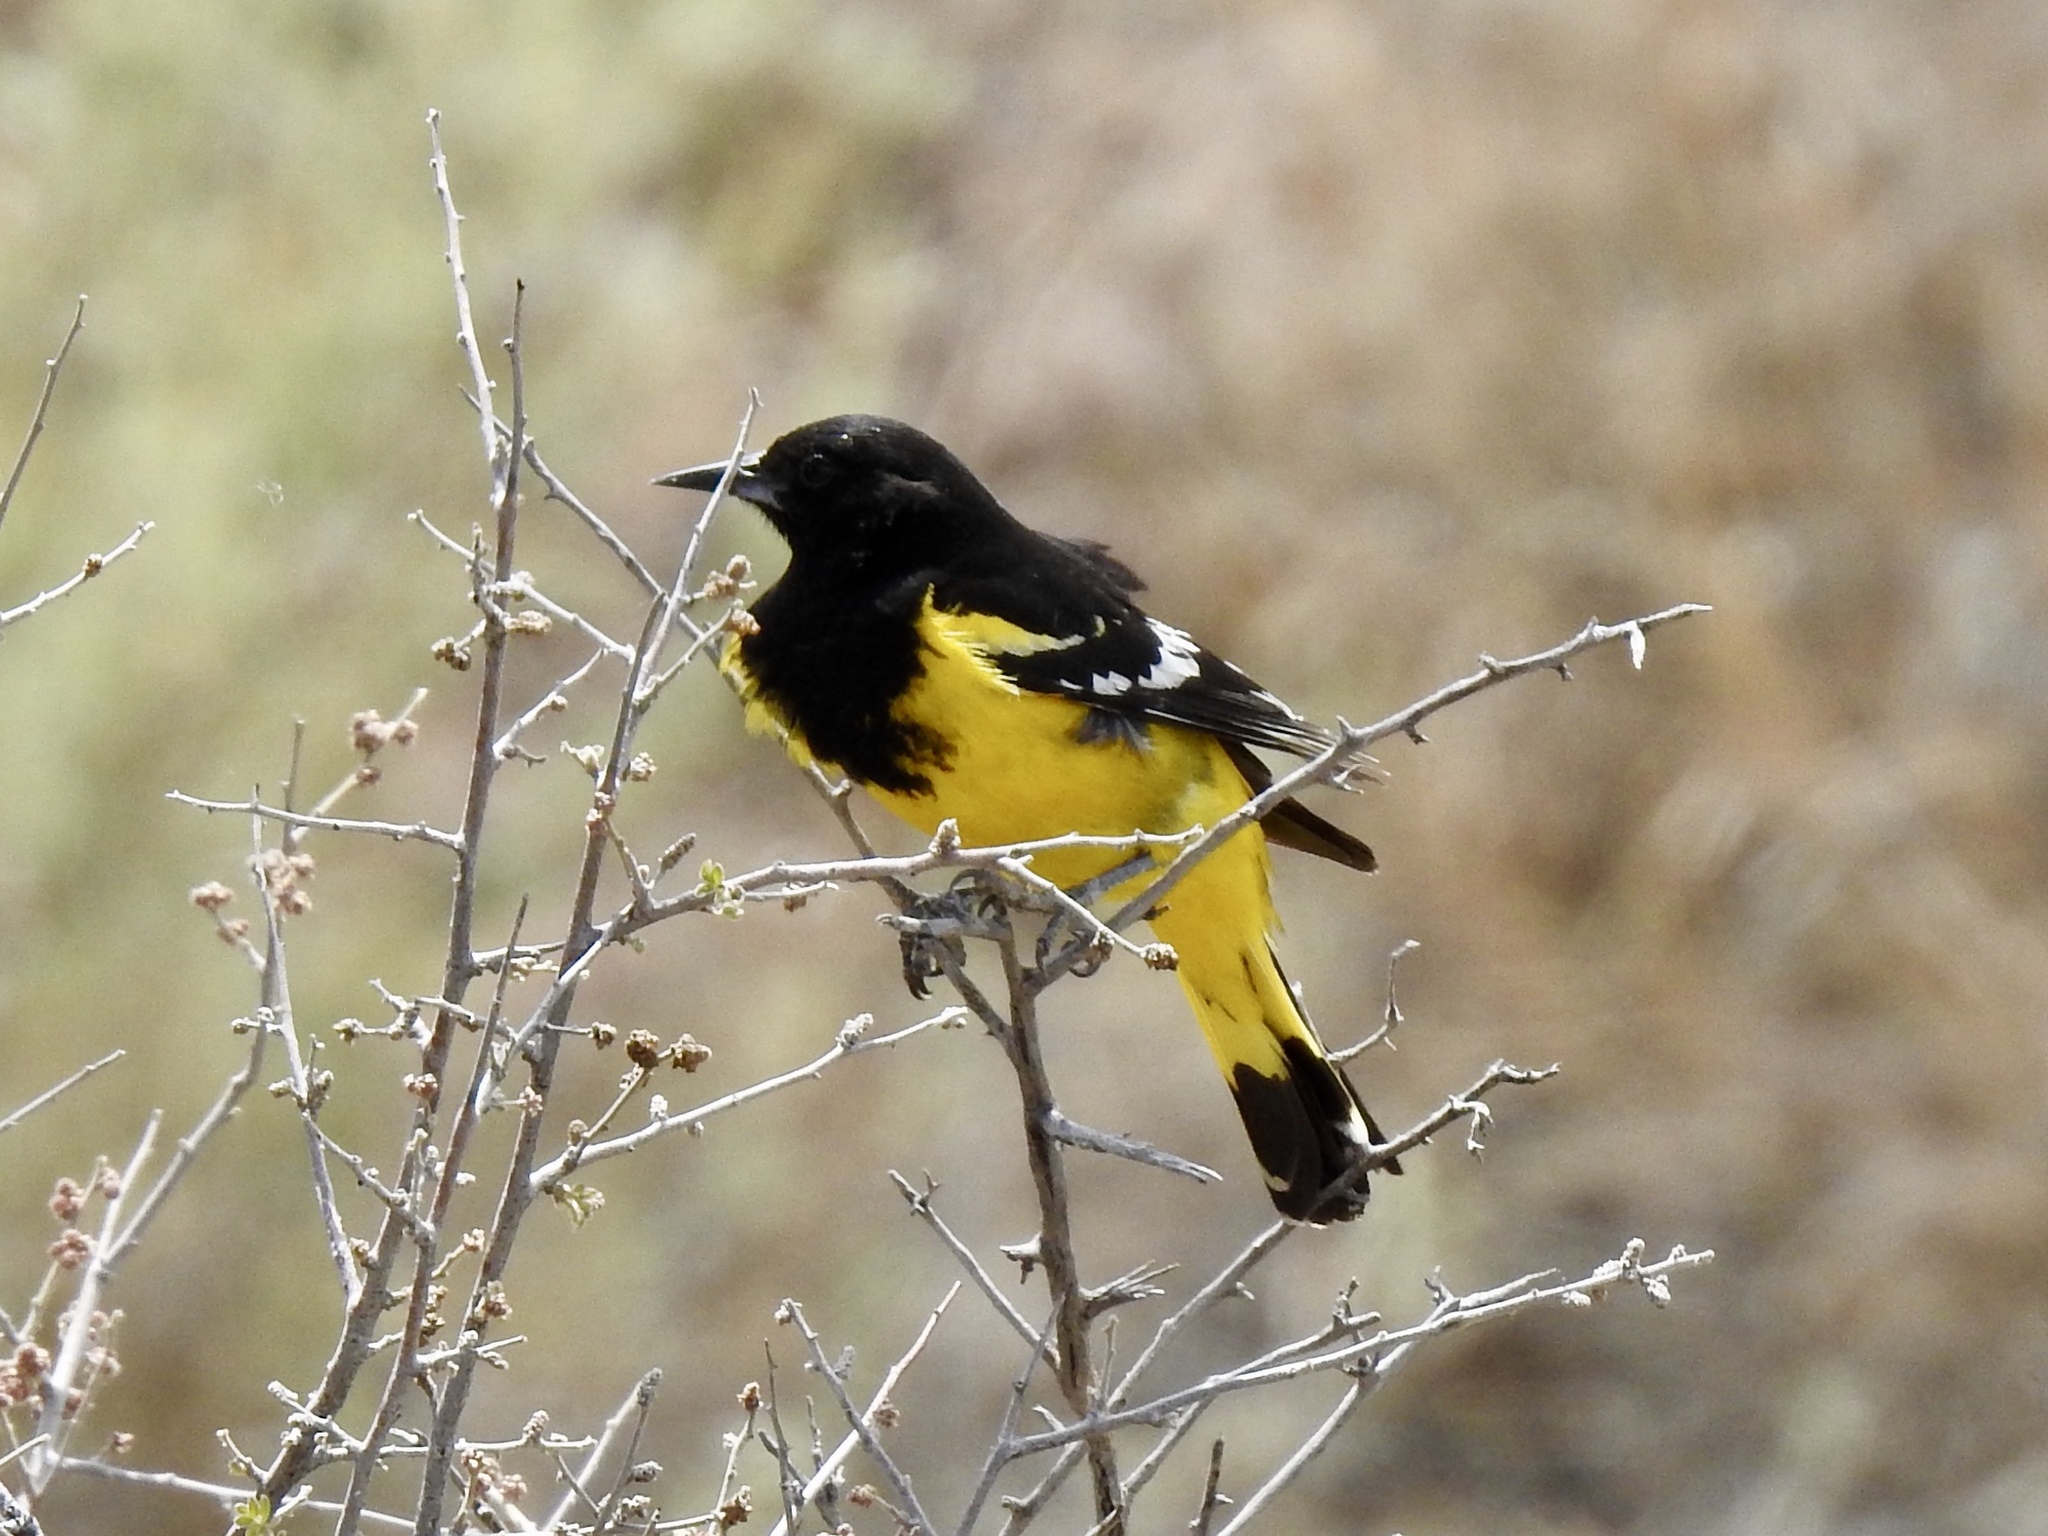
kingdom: Animalia
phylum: Chordata
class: Aves
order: Passeriformes
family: Icteridae
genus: Icterus
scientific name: Icterus parisorum
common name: Scott's oriole
